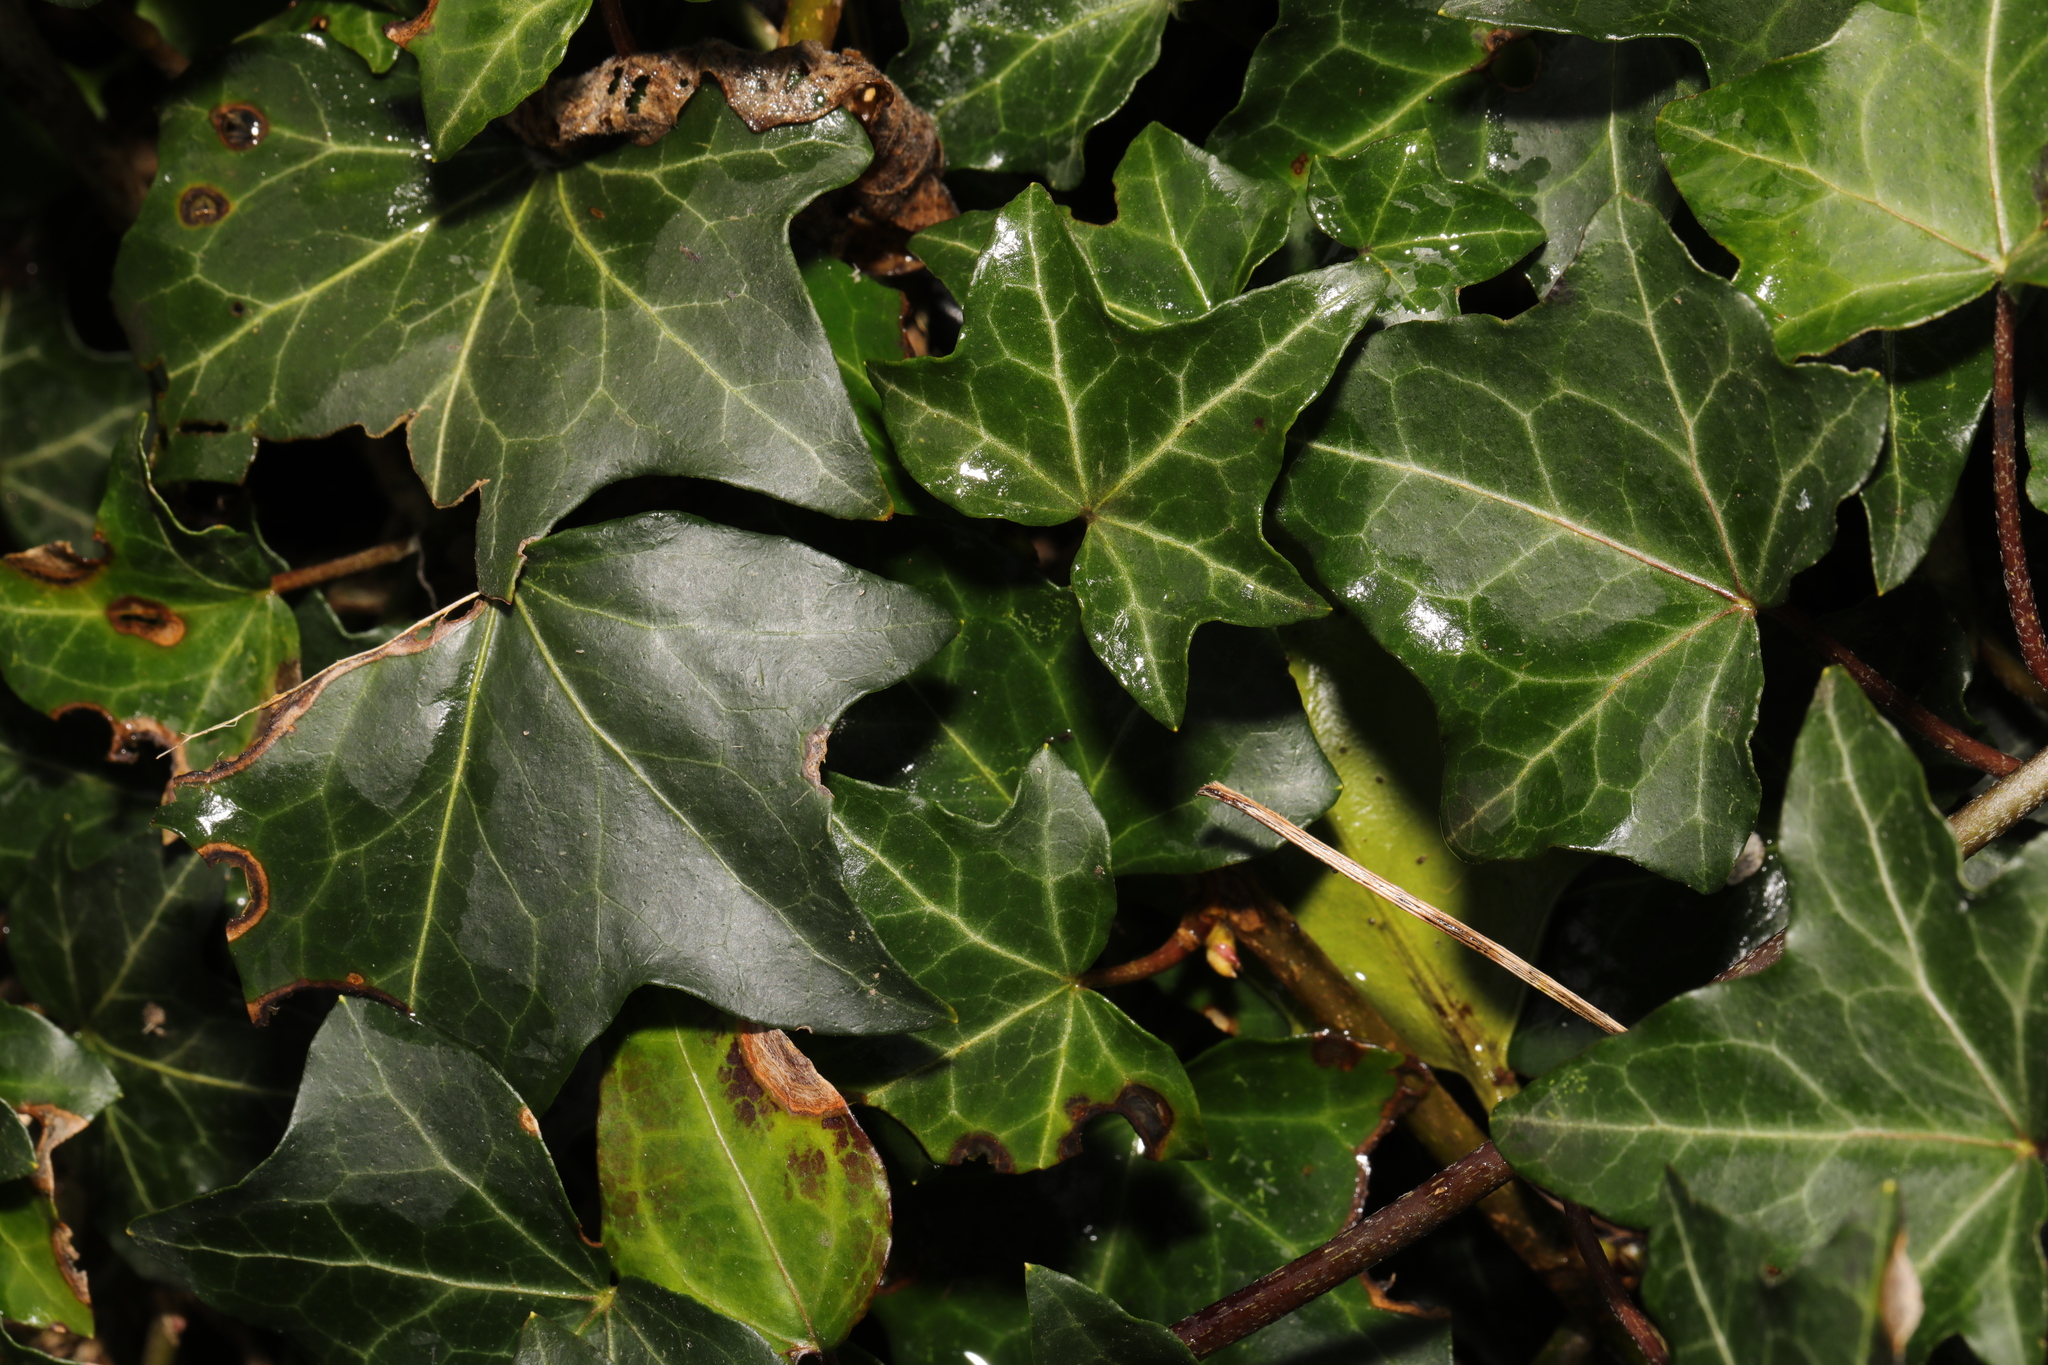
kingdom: Plantae
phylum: Tracheophyta
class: Magnoliopsida
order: Apiales
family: Araliaceae
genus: Hedera
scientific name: Hedera helix
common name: Ivy
